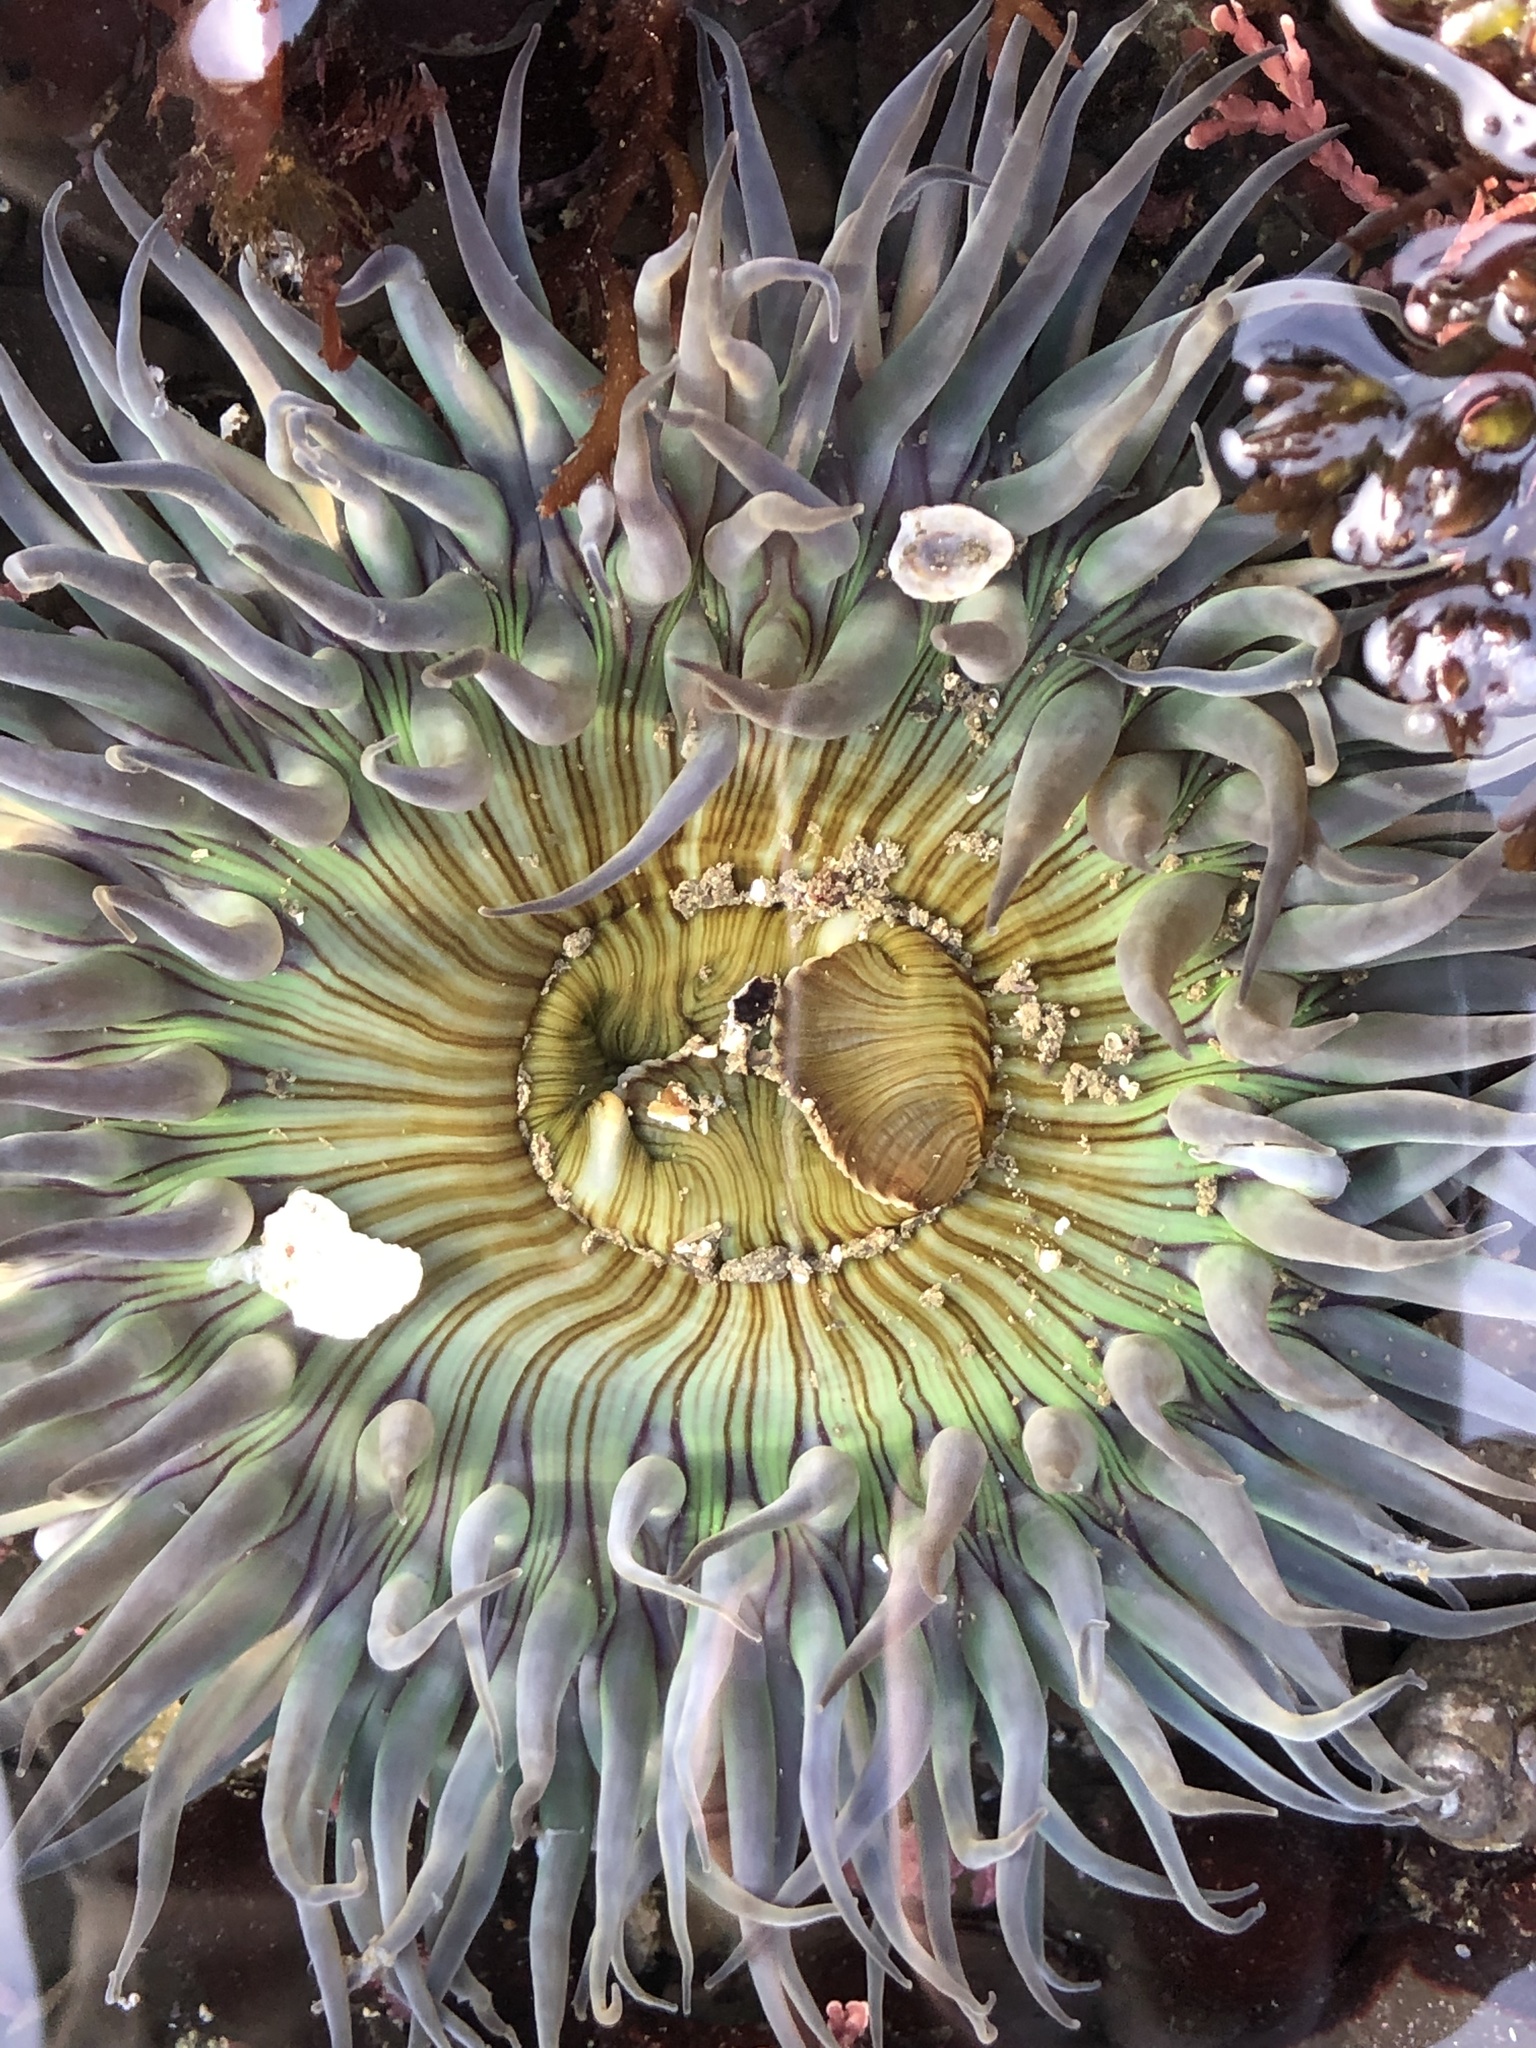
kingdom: Animalia
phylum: Cnidaria
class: Anthozoa
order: Actiniaria
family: Actiniidae
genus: Anthopleura
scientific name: Anthopleura sola
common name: Sun anemone
